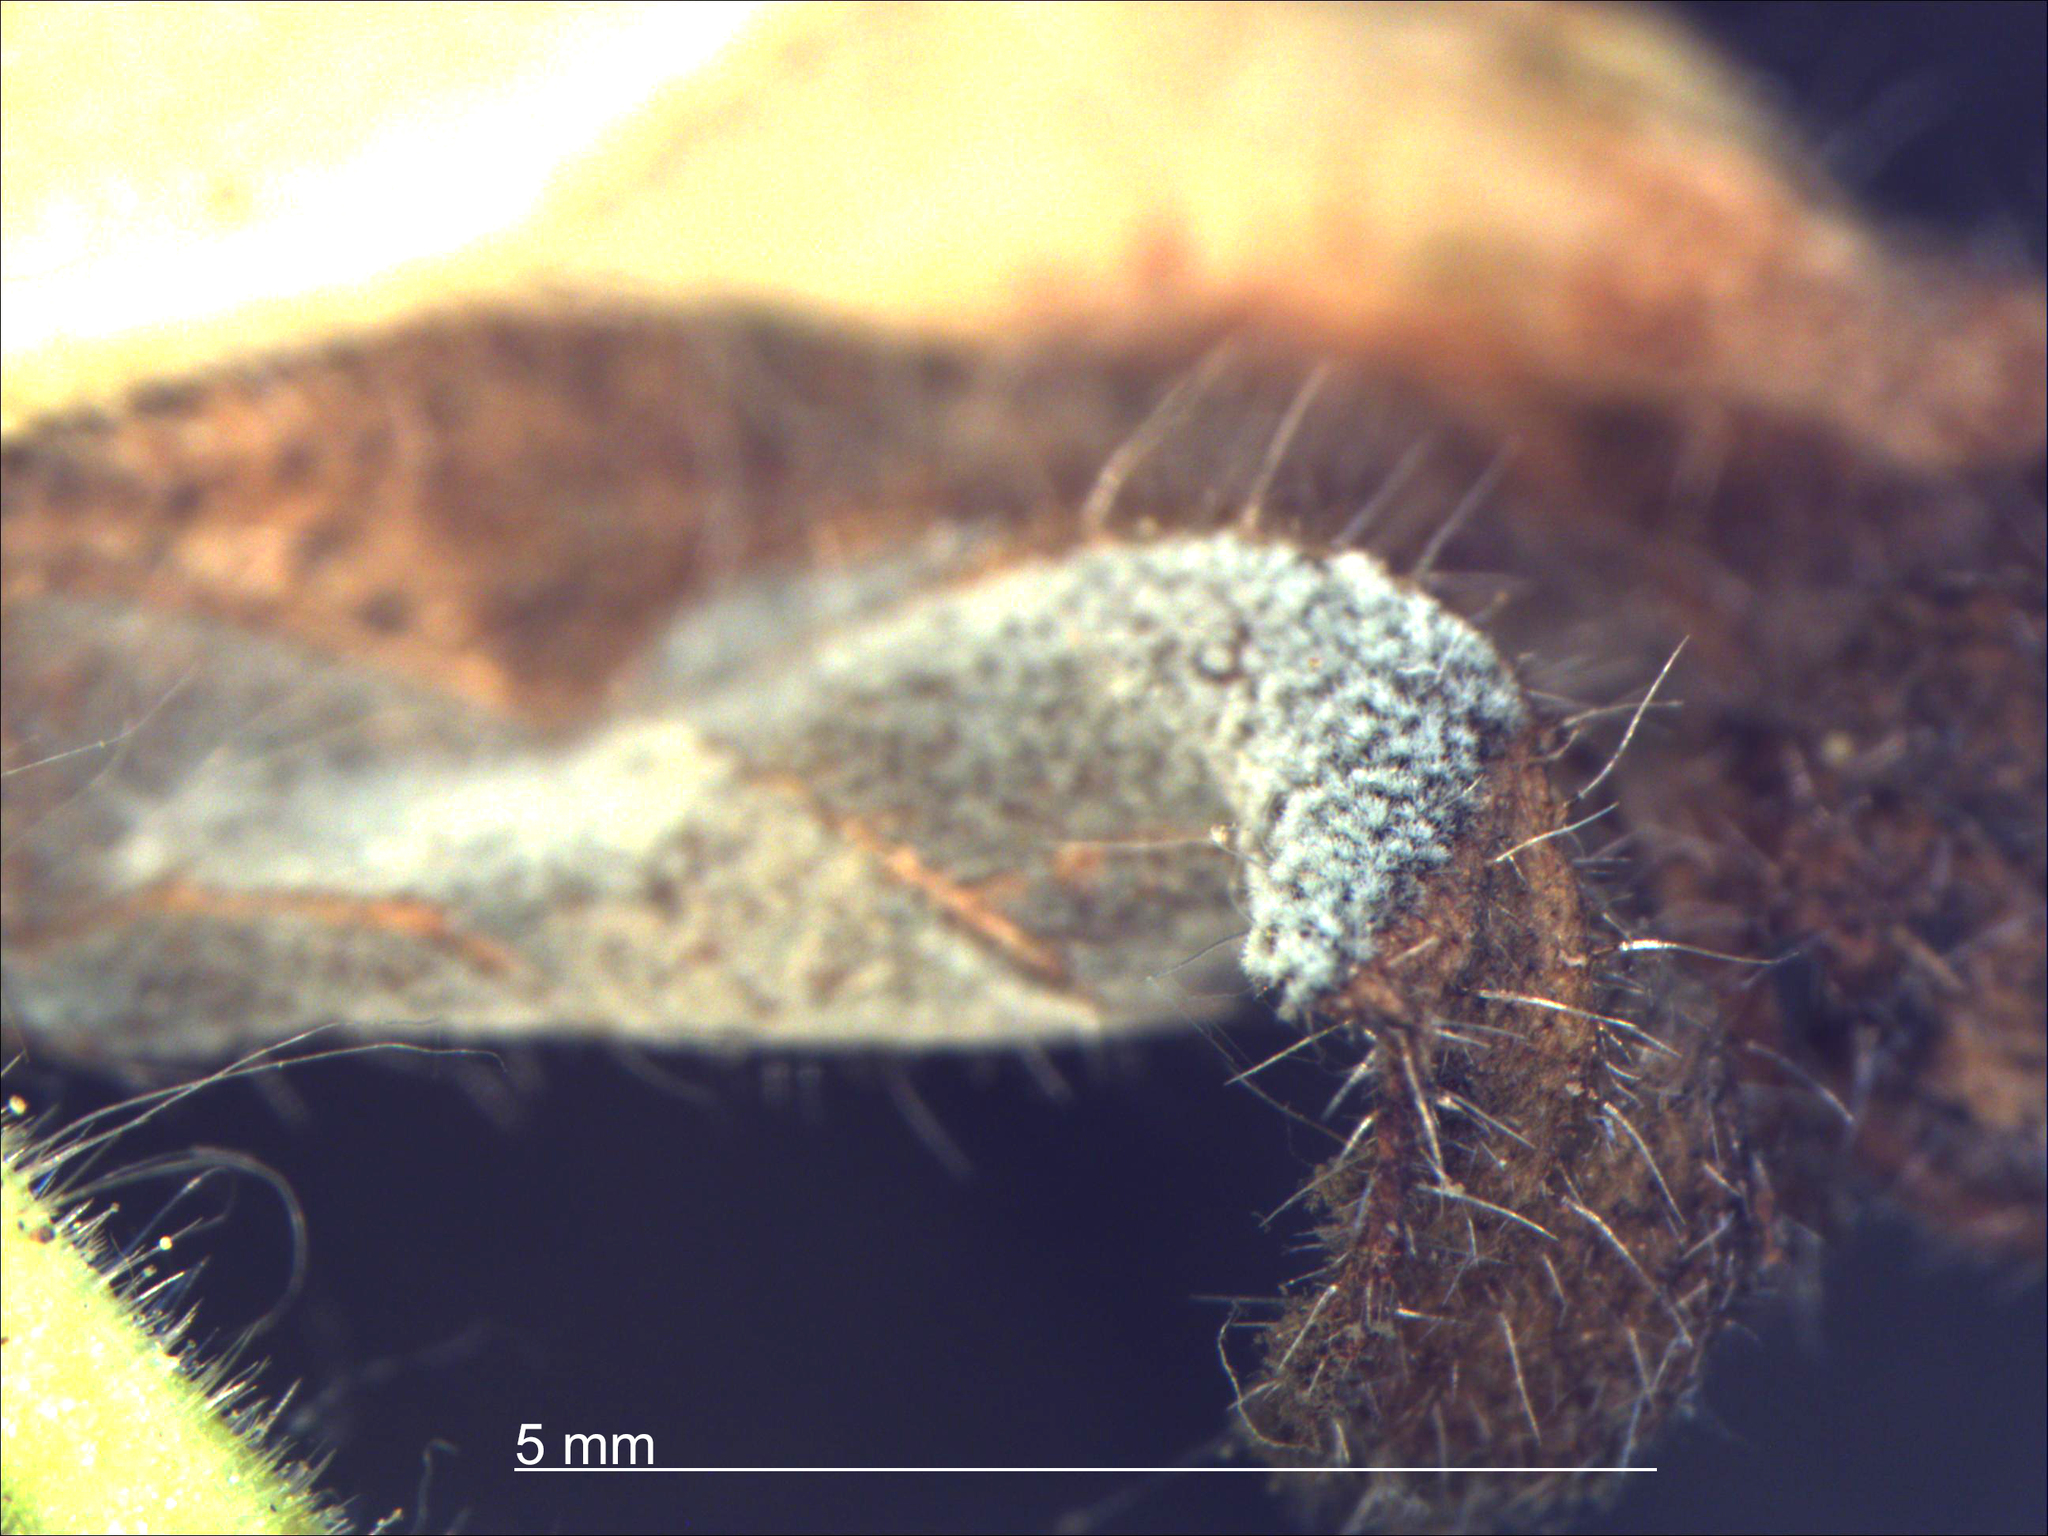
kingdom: Fungi
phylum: Ascomycota
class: Dothideomycetes
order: Mycosphaerellales
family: Mycosphaerellaceae
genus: Passalora
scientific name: Passalora minutissima
